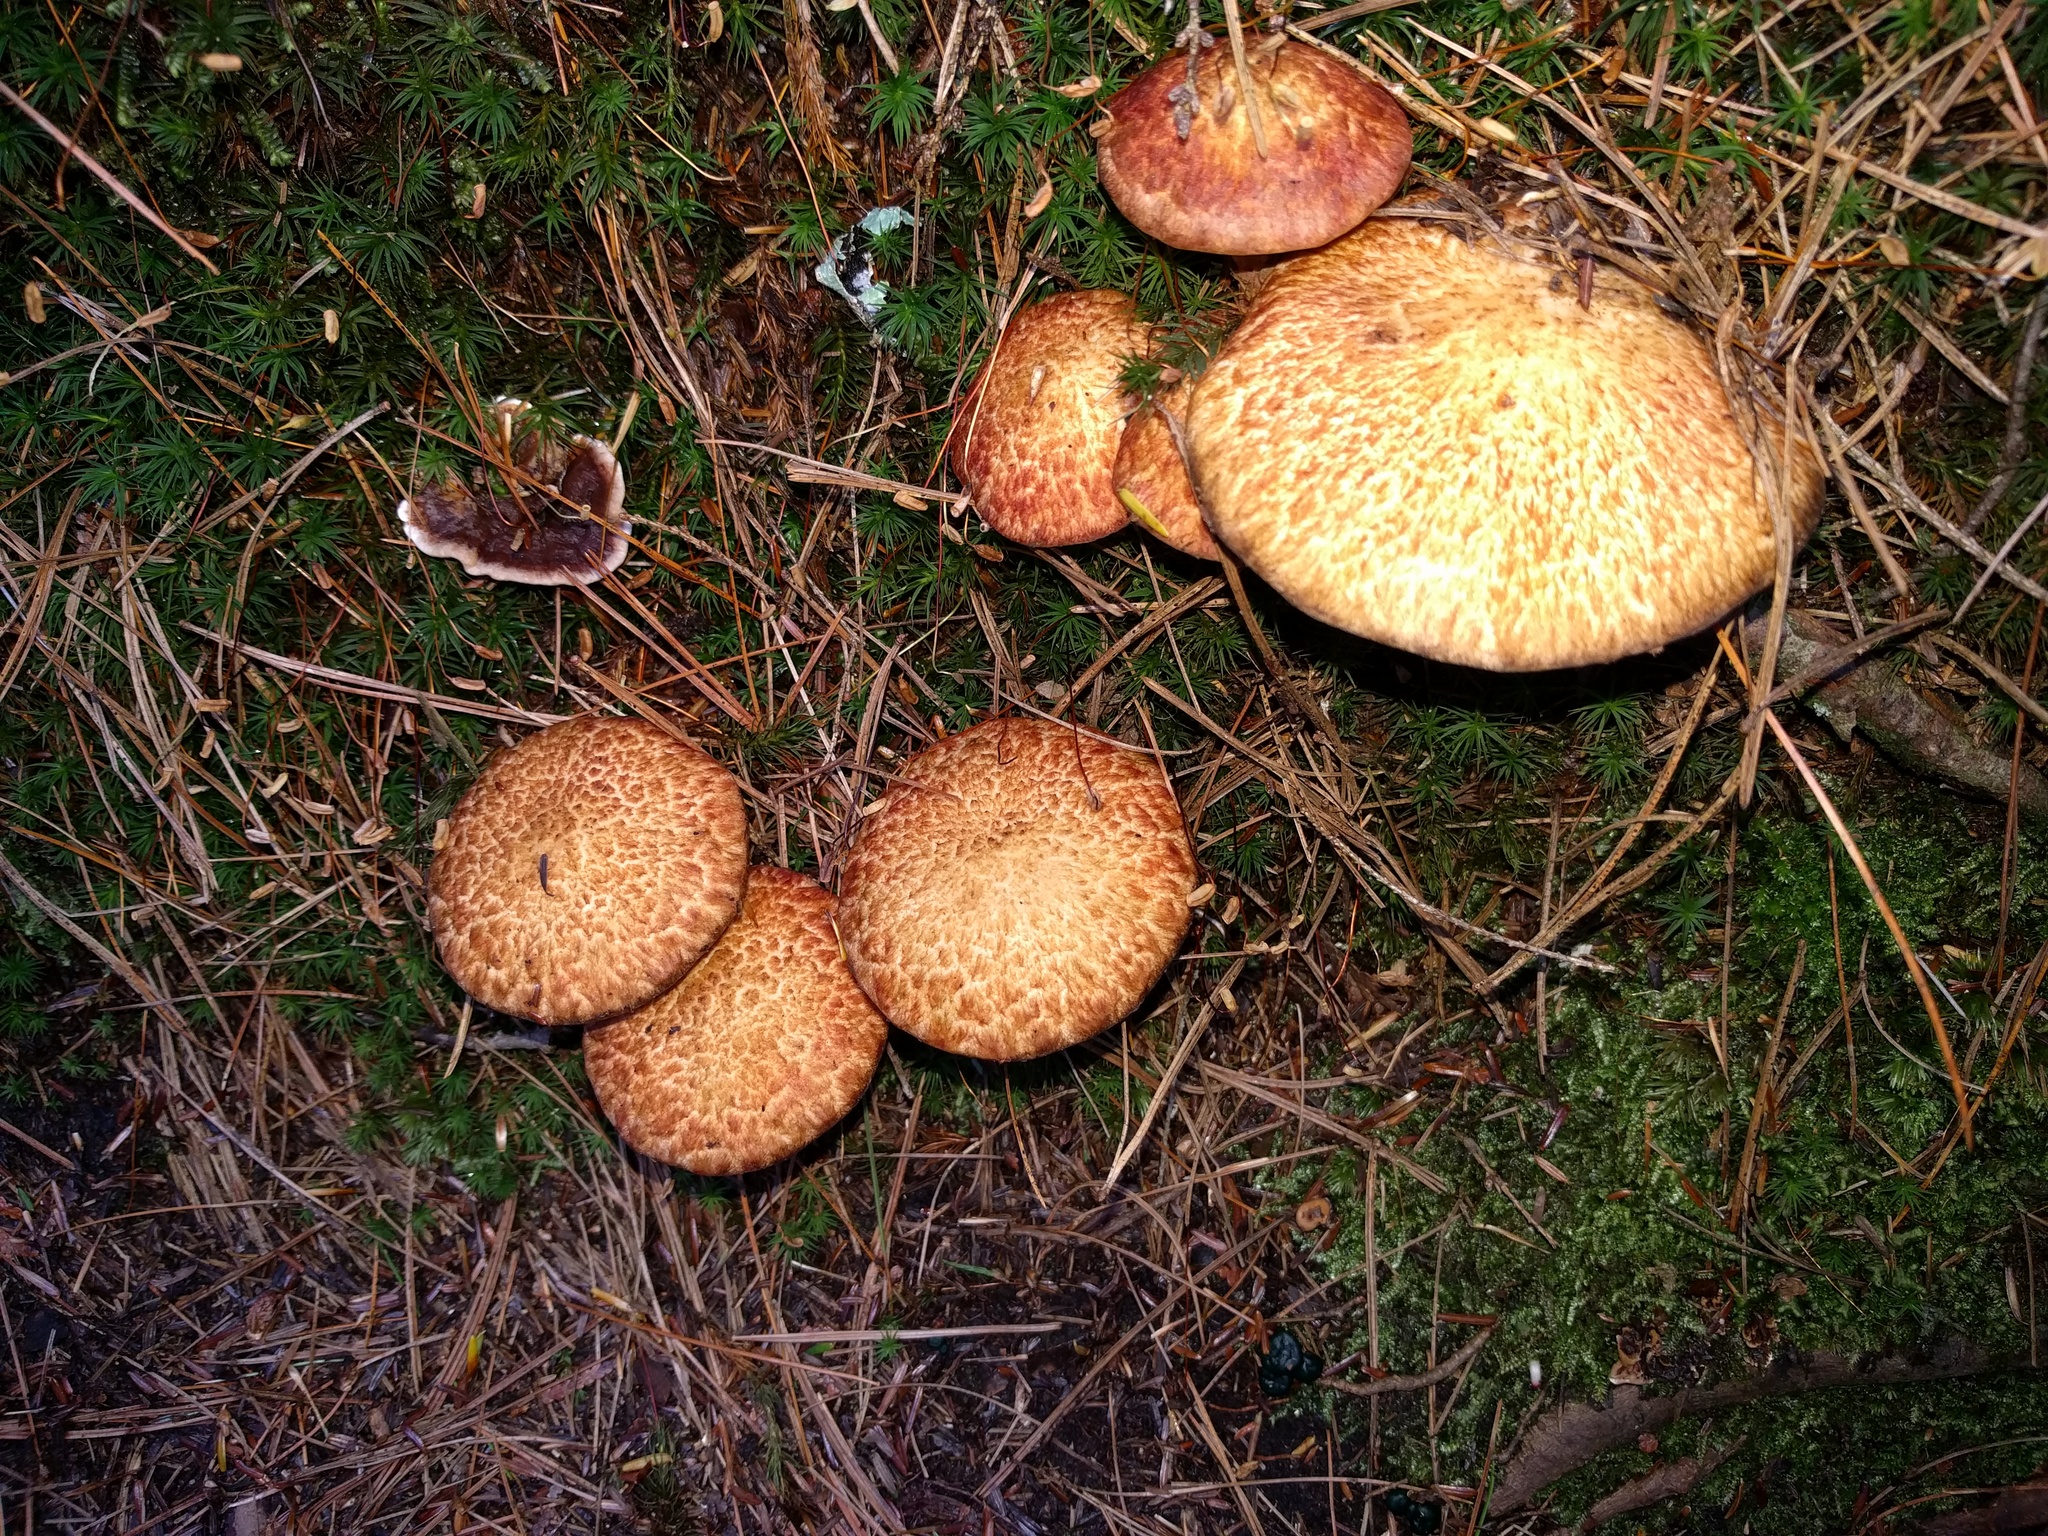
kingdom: Fungi
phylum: Basidiomycota
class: Agaricomycetes
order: Boletales
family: Suillaceae
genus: Suillus
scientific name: Suillus spraguei
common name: Painted suillus
